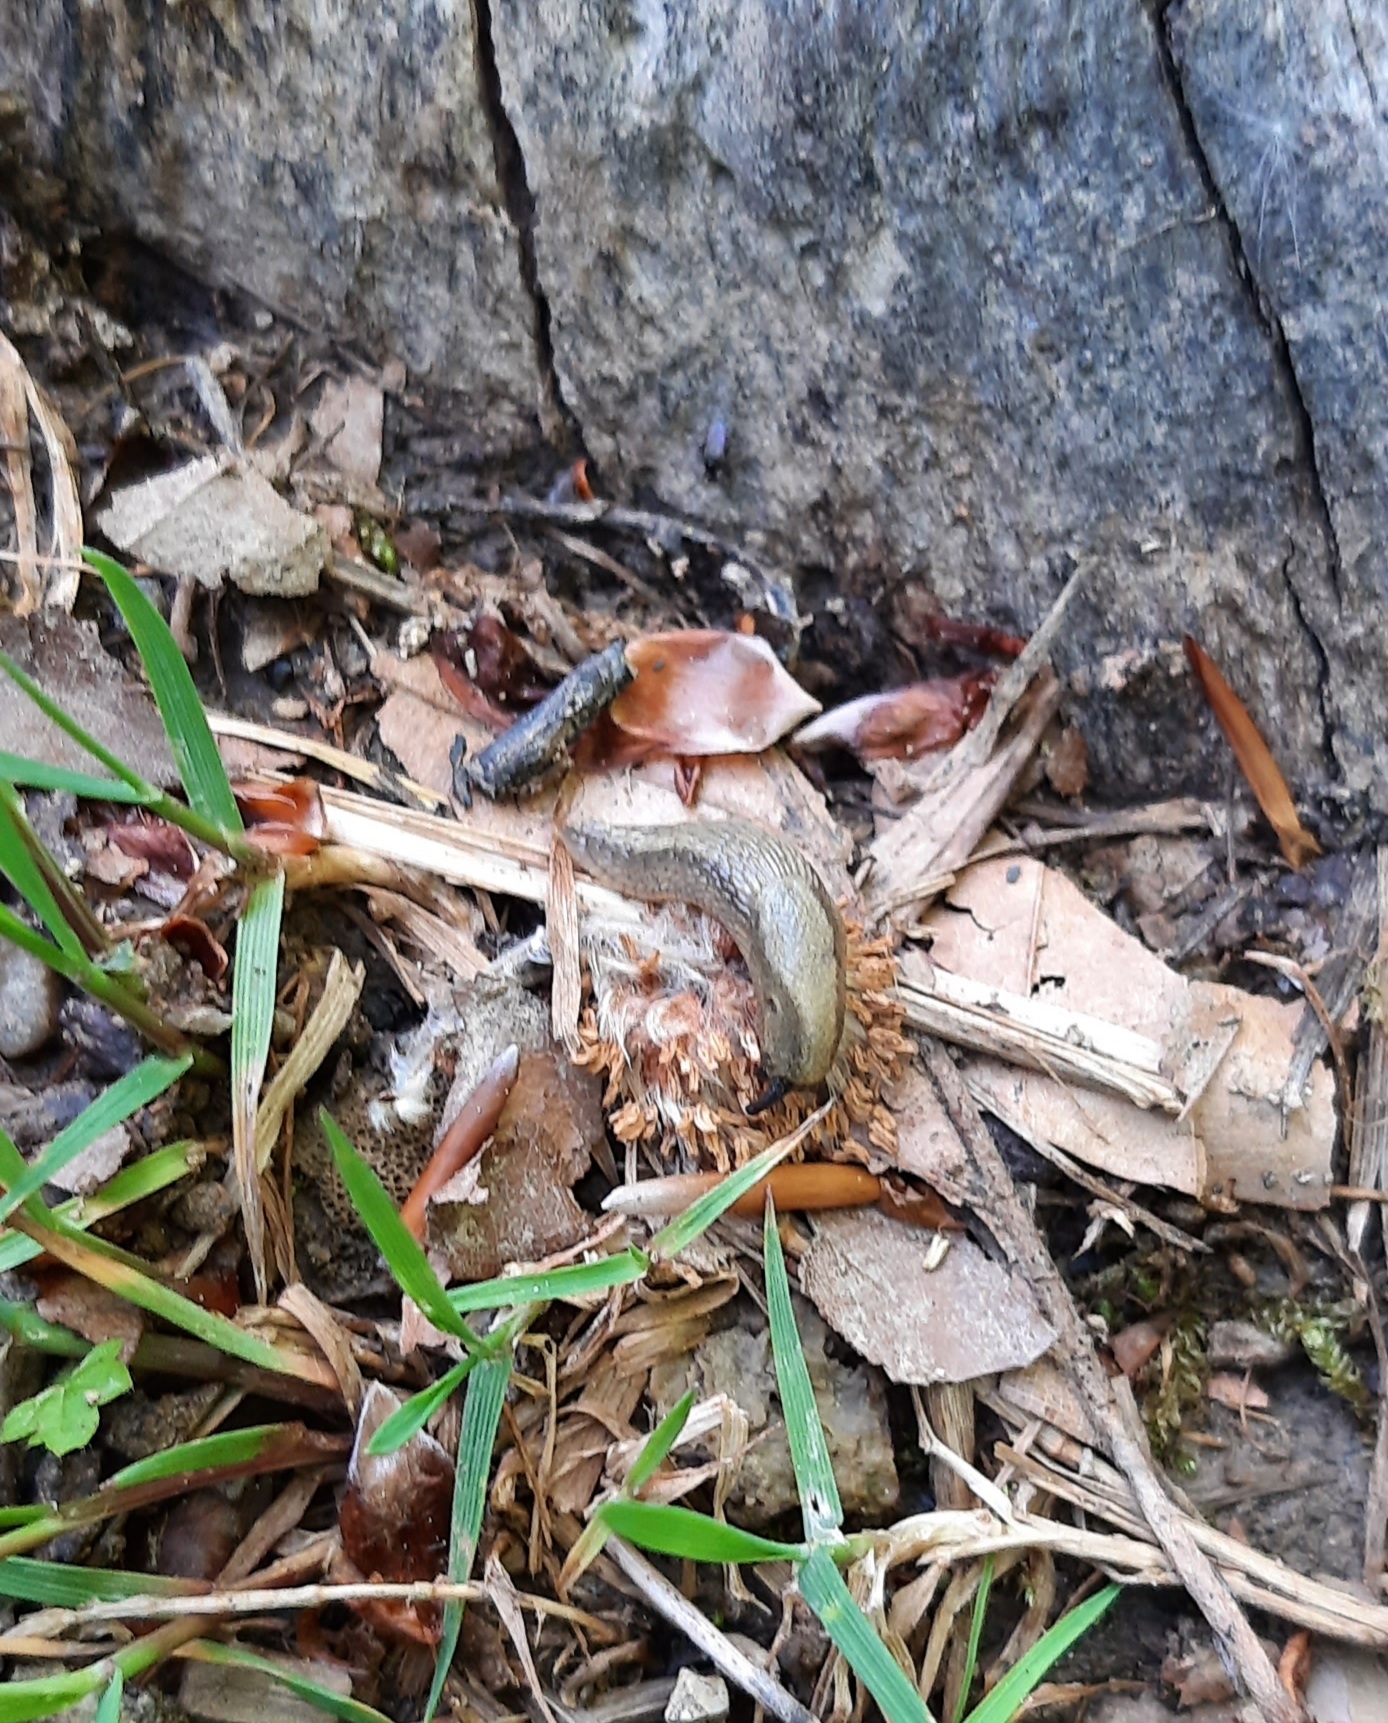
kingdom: Animalia
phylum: Mollusca
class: Gastropoda
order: Stylommatophora
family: Arionidae
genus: Arion
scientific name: Arion vulgaris
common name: Lusitanian slug
